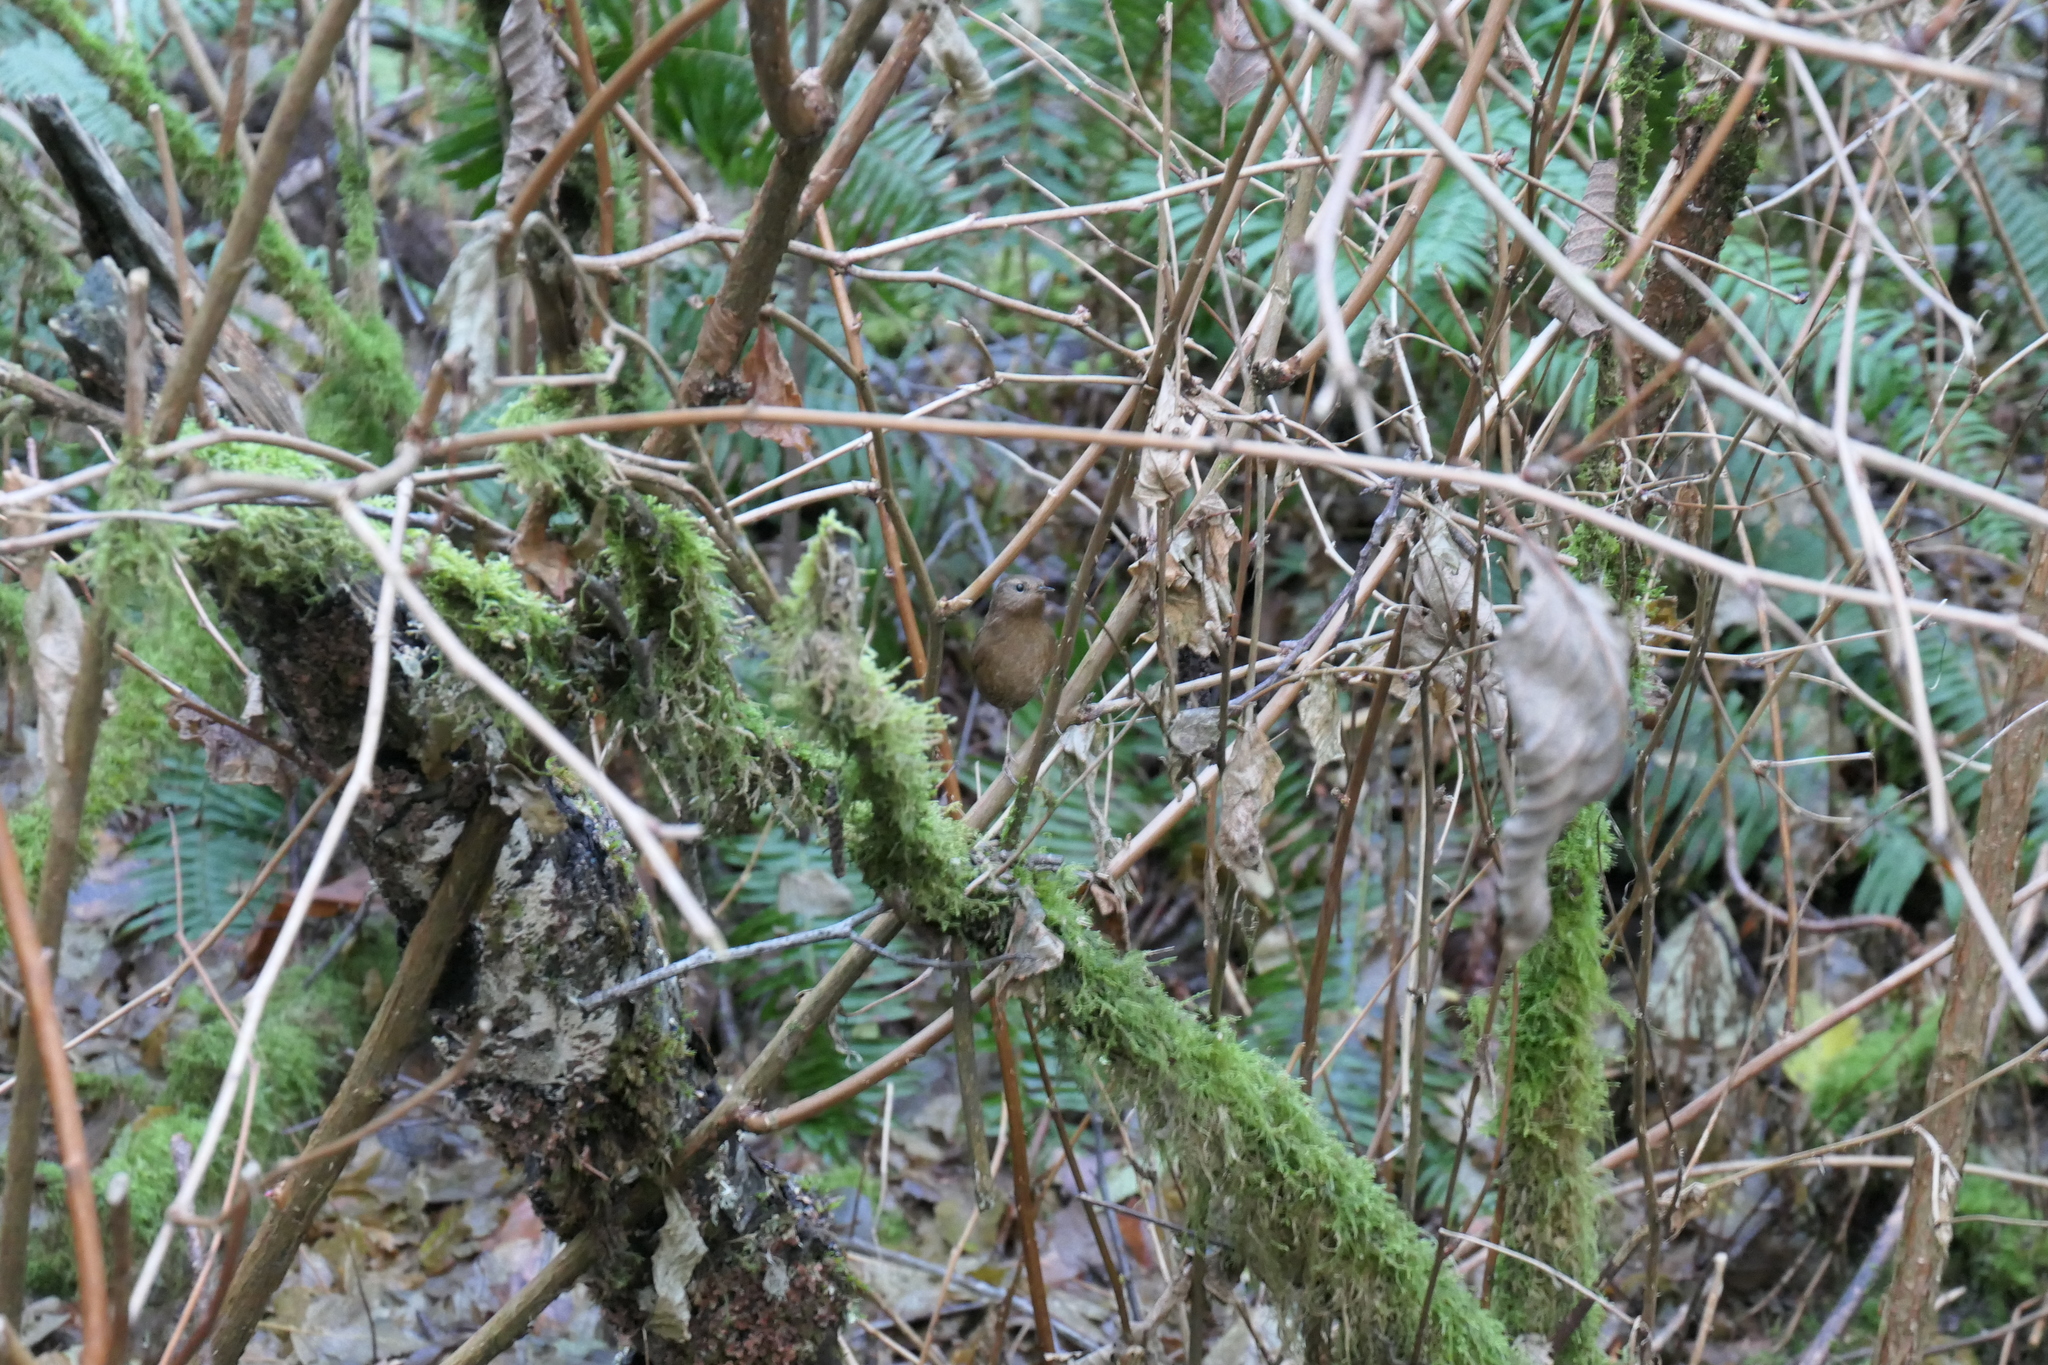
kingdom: Animalia
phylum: Chordata
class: Aves
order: Passeriformes
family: Troglodytidae
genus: Troglodytes
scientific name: Troglodytes pacificus
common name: Pacific wren
